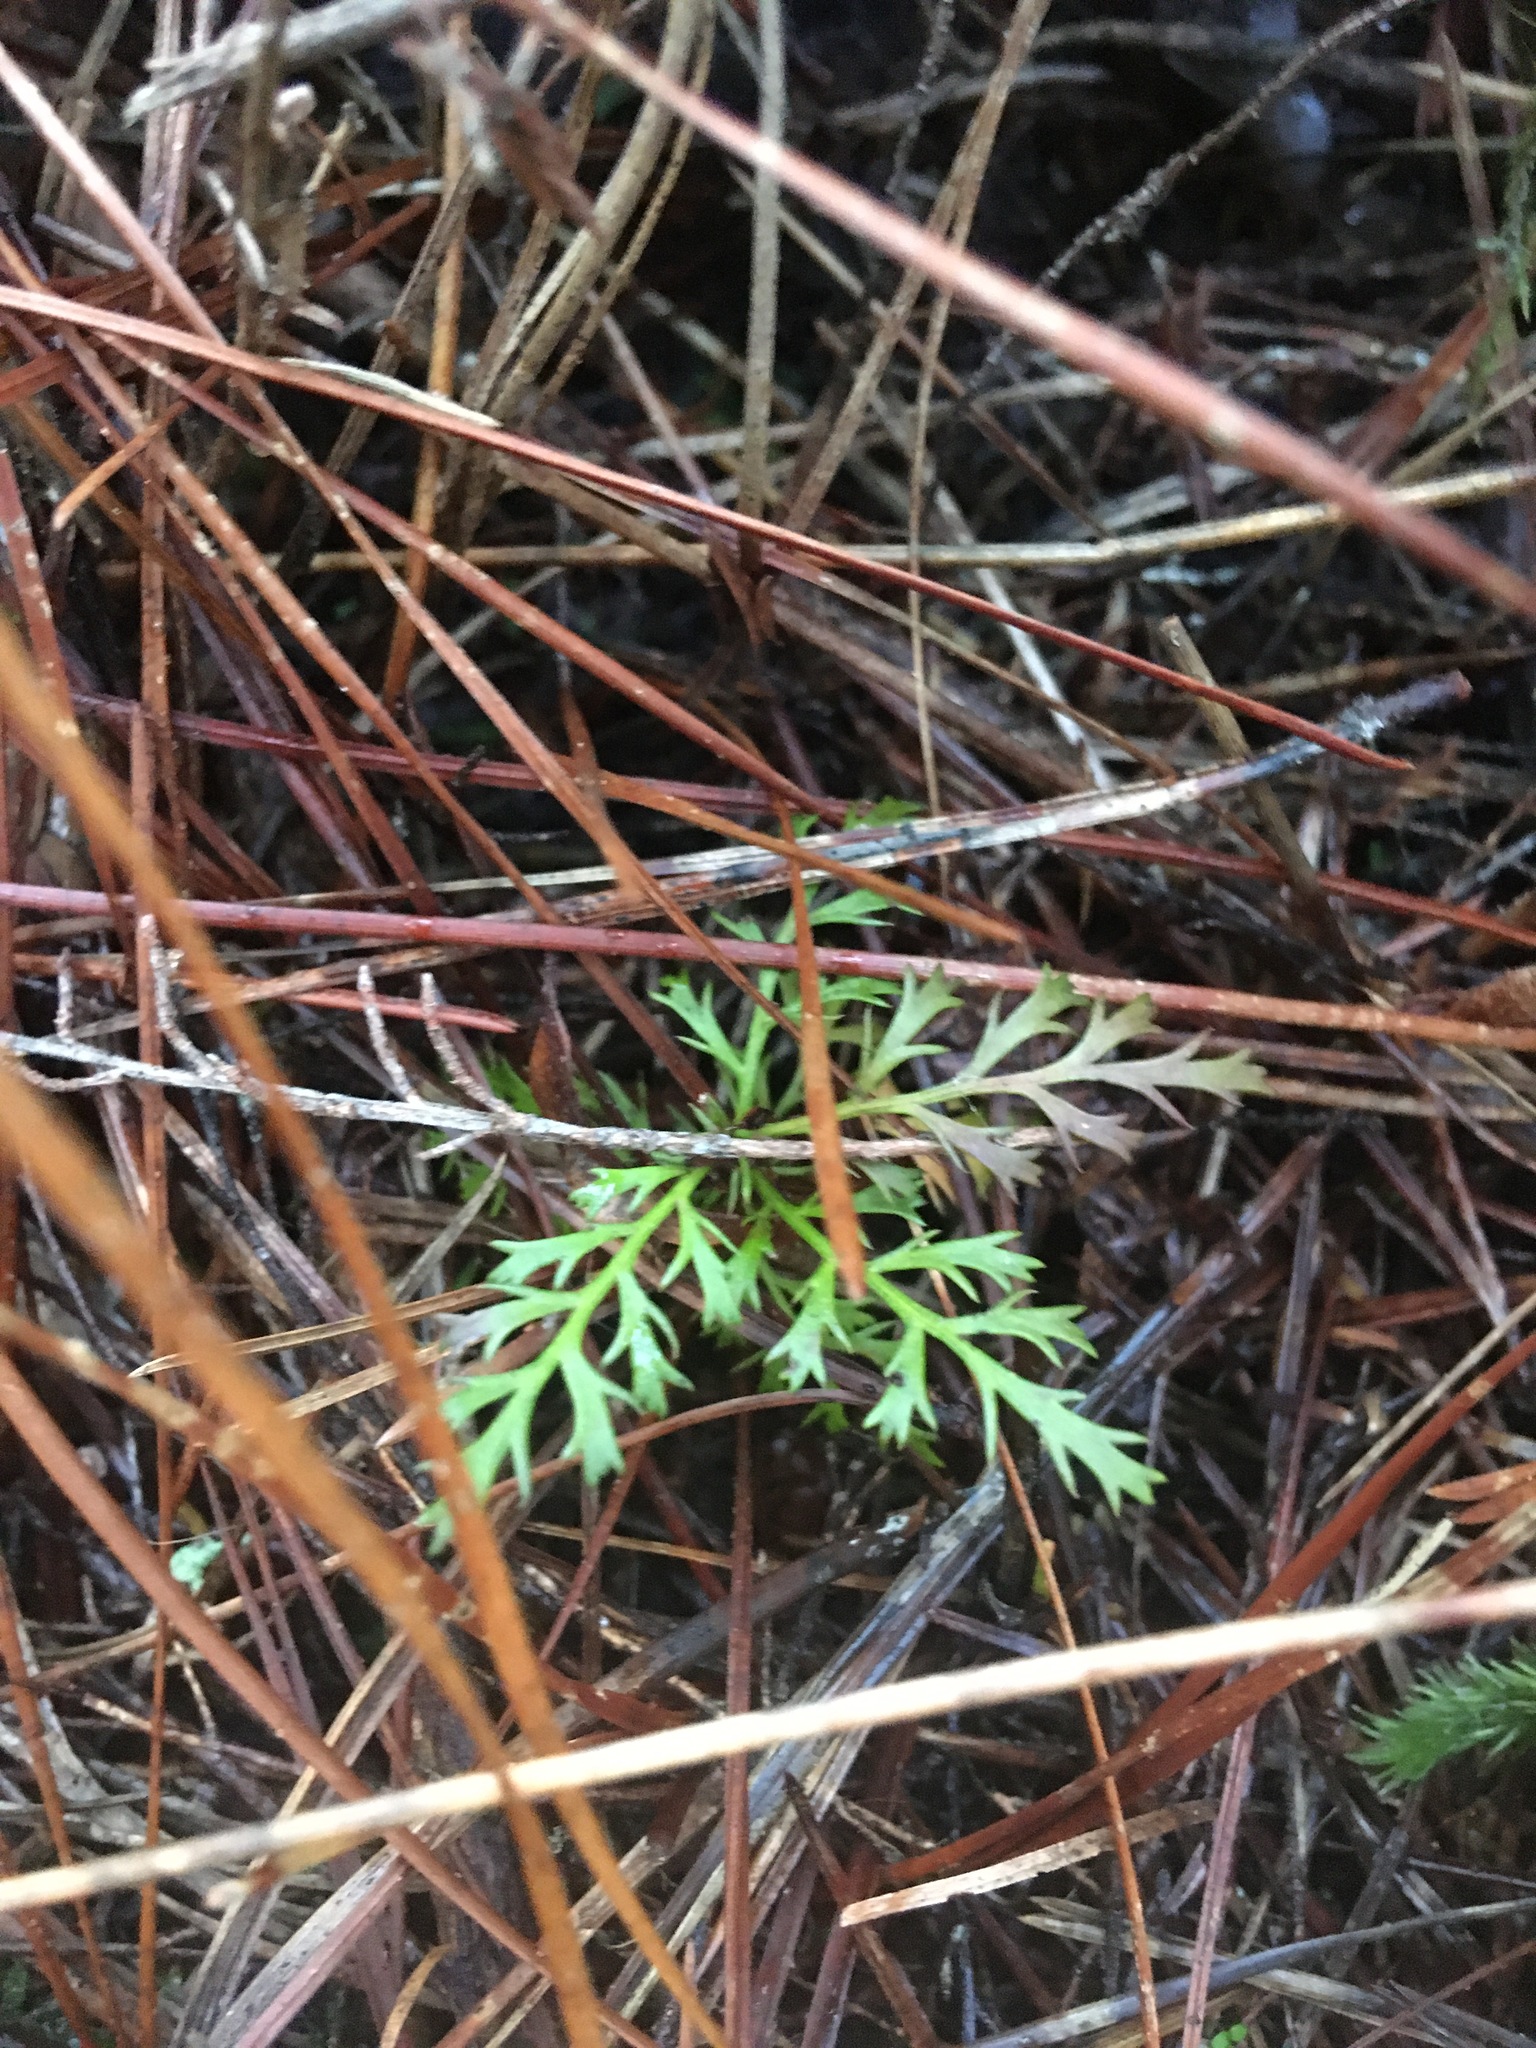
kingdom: Plantae
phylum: Tracheophyta
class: Pinopsida
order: Pinales
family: Phyllocladaceae
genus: Phyllocladus
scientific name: Phyllocladus trichomanoides
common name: Celery pine
